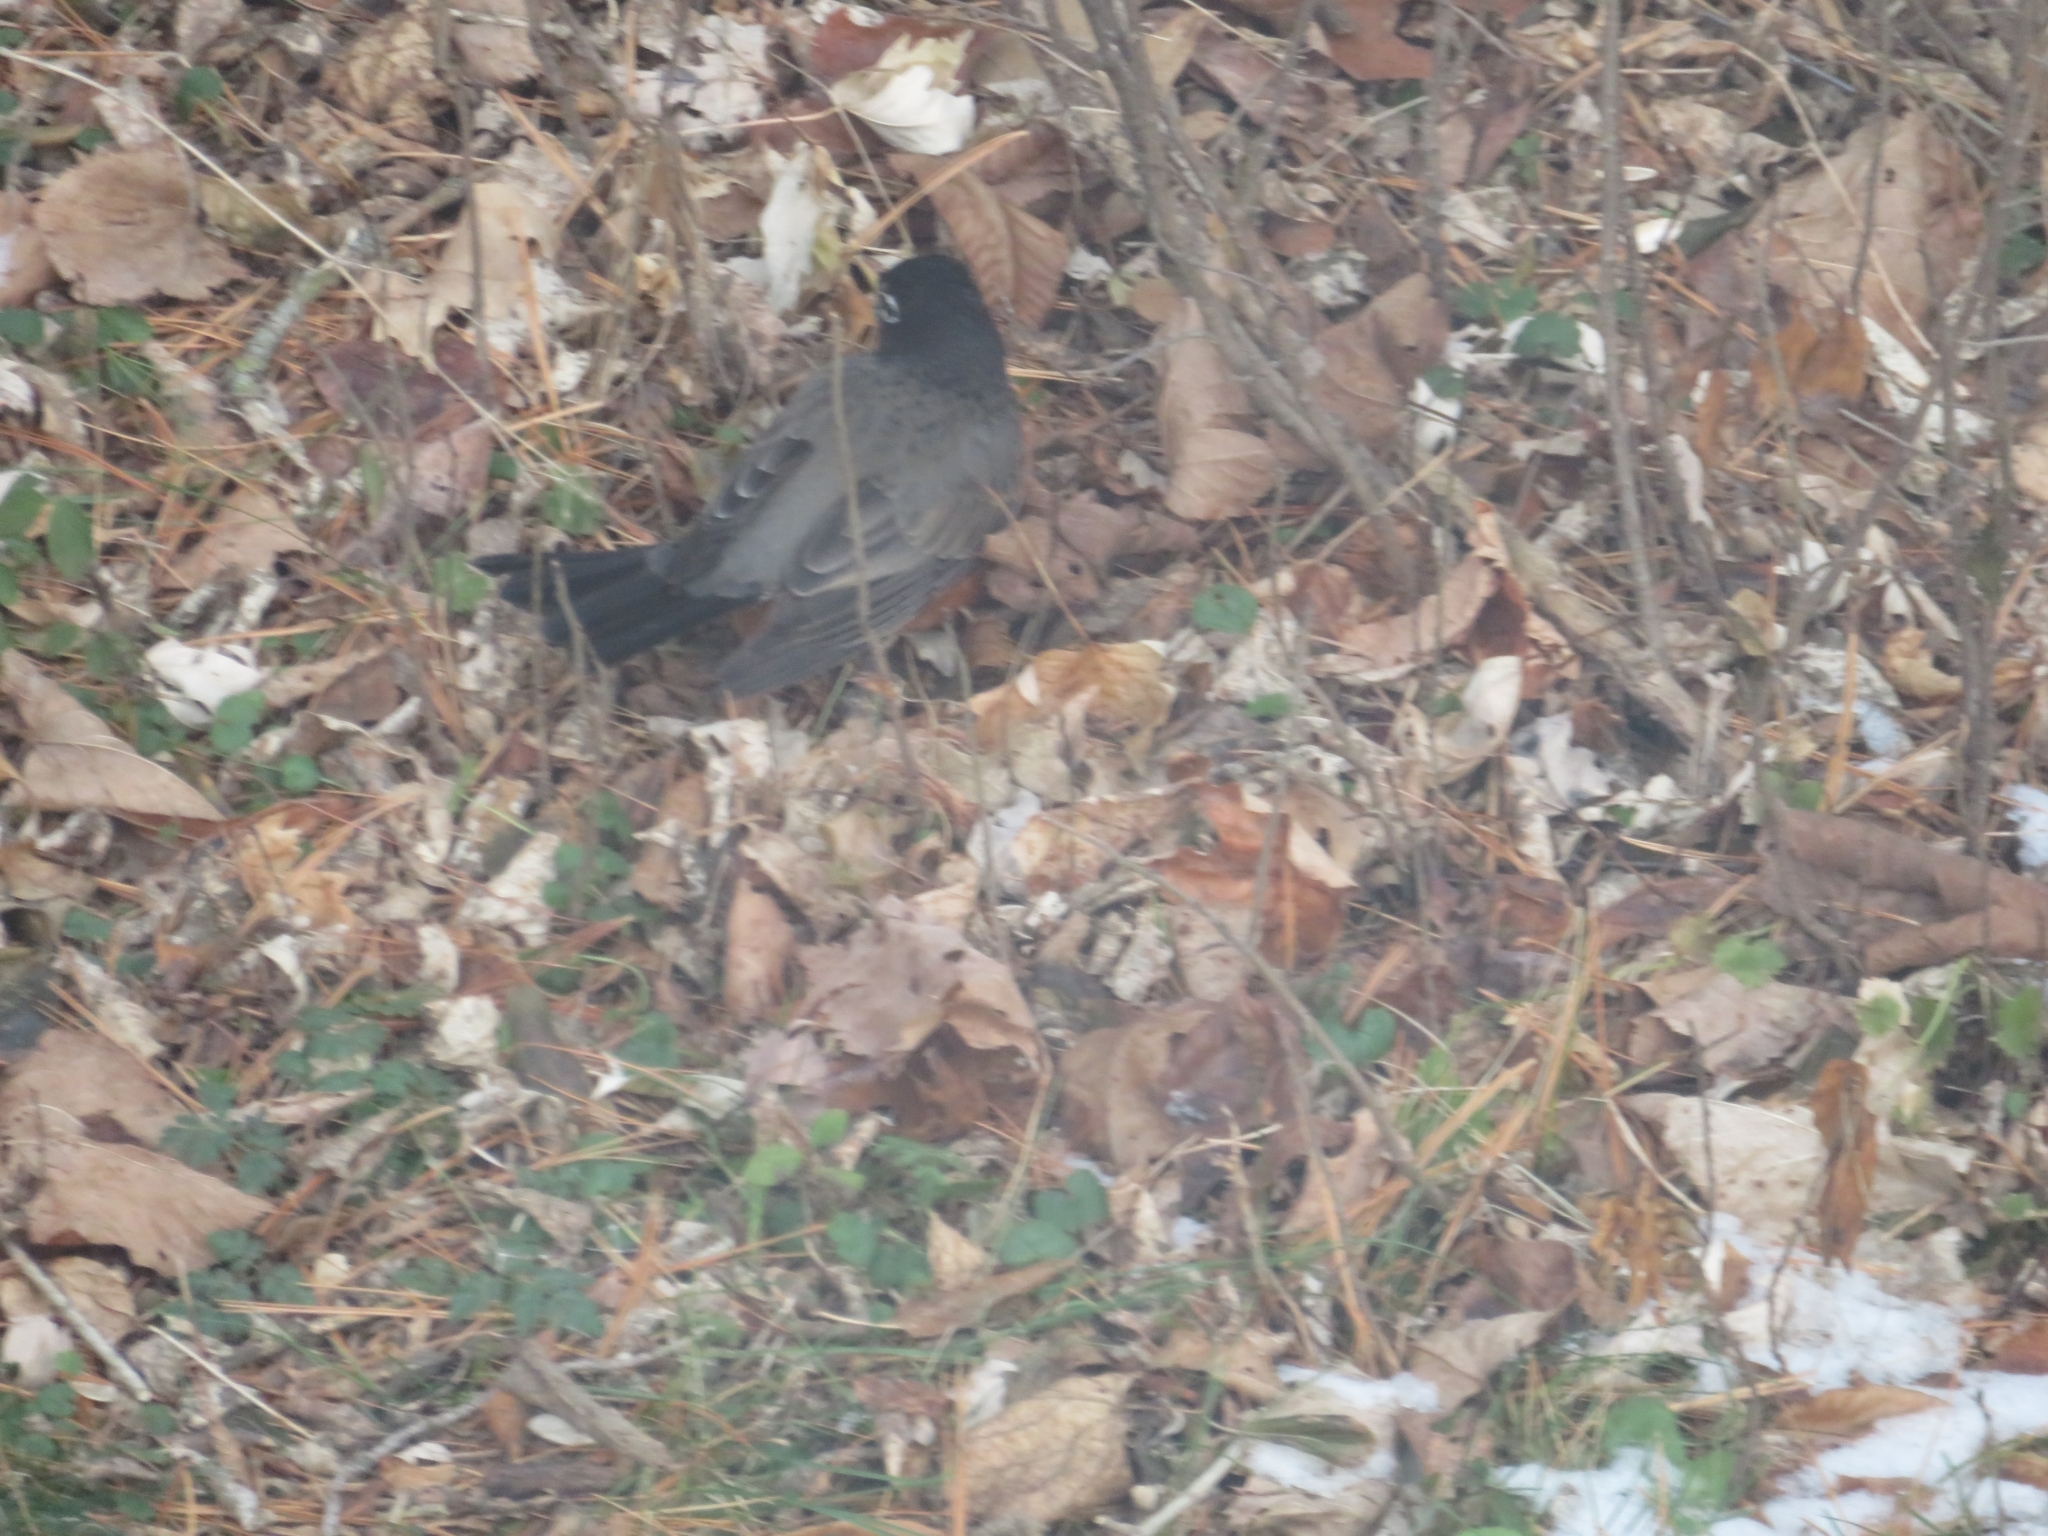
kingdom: Animalia
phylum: Chordata
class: Aves
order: Passeriformes
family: Turdidae
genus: Turdus
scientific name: Turdus migratorius
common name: American robin
